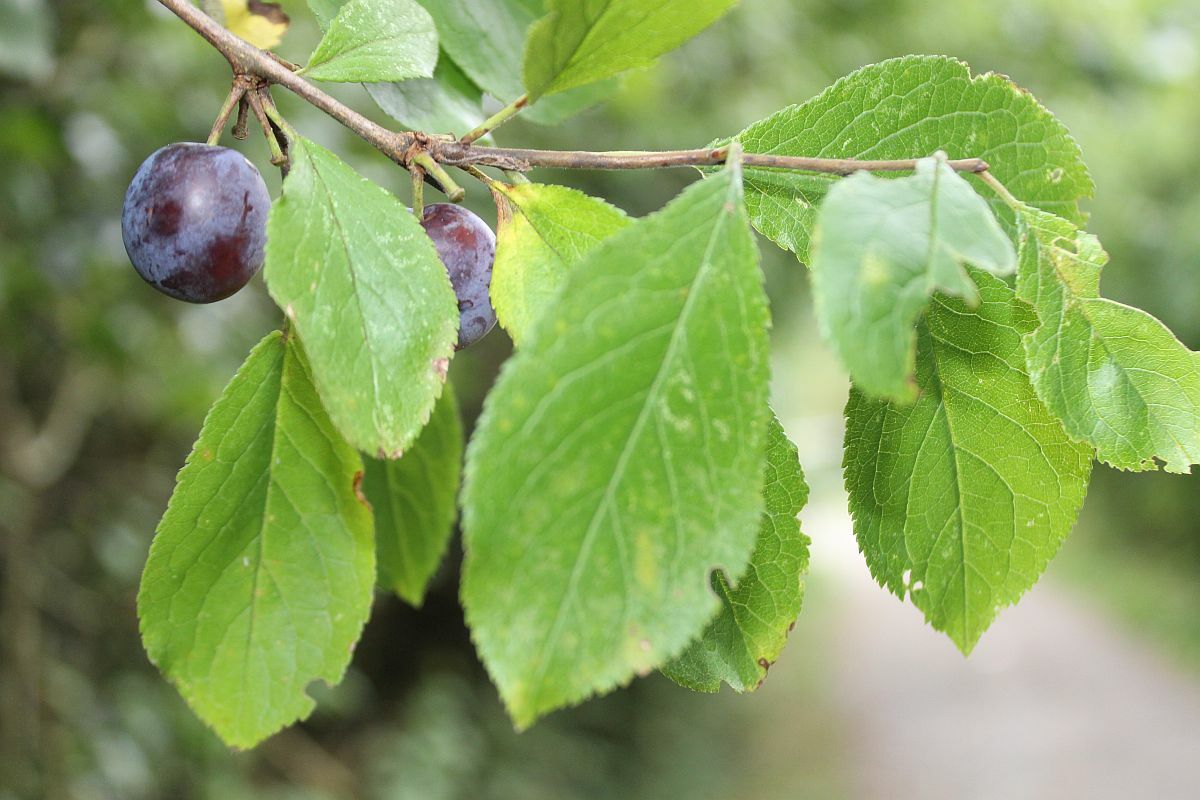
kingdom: Plantae
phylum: Tracheophyta
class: Magnoliopsida
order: Rosales
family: Rosaceae
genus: Prunus
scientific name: Prunus
